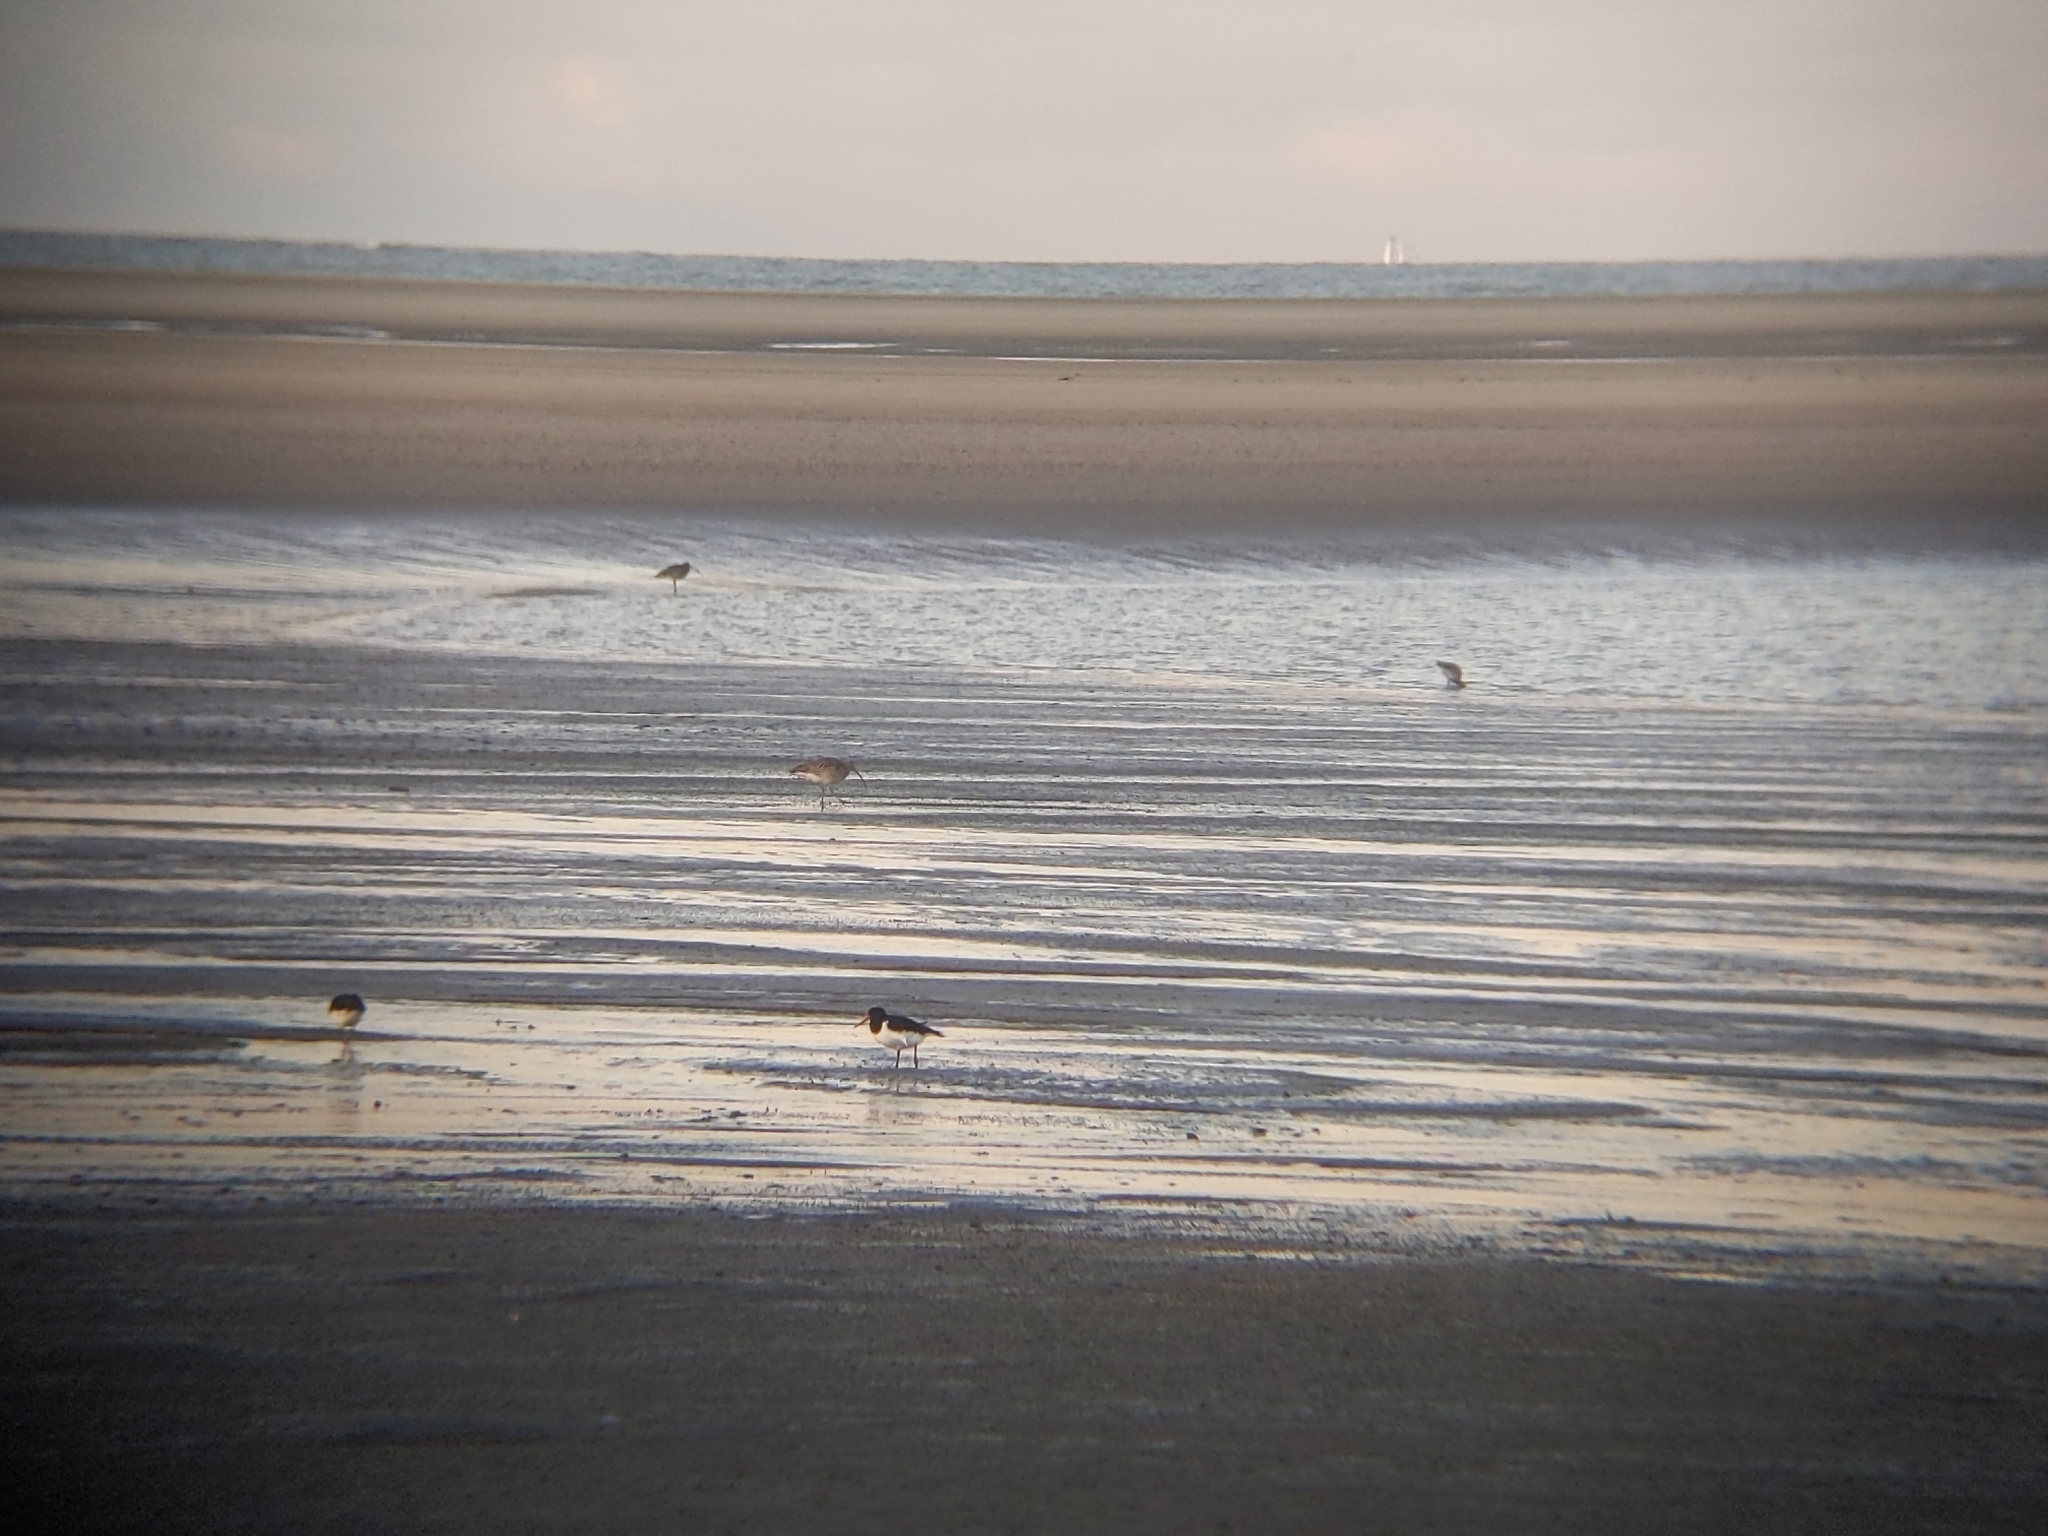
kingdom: Animalia
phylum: Chordata
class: Aves
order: Charadriiformes
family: Haematopodidae
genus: Haematopus
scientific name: Haematopus ostralegus
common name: Eurasian oystercatcher
